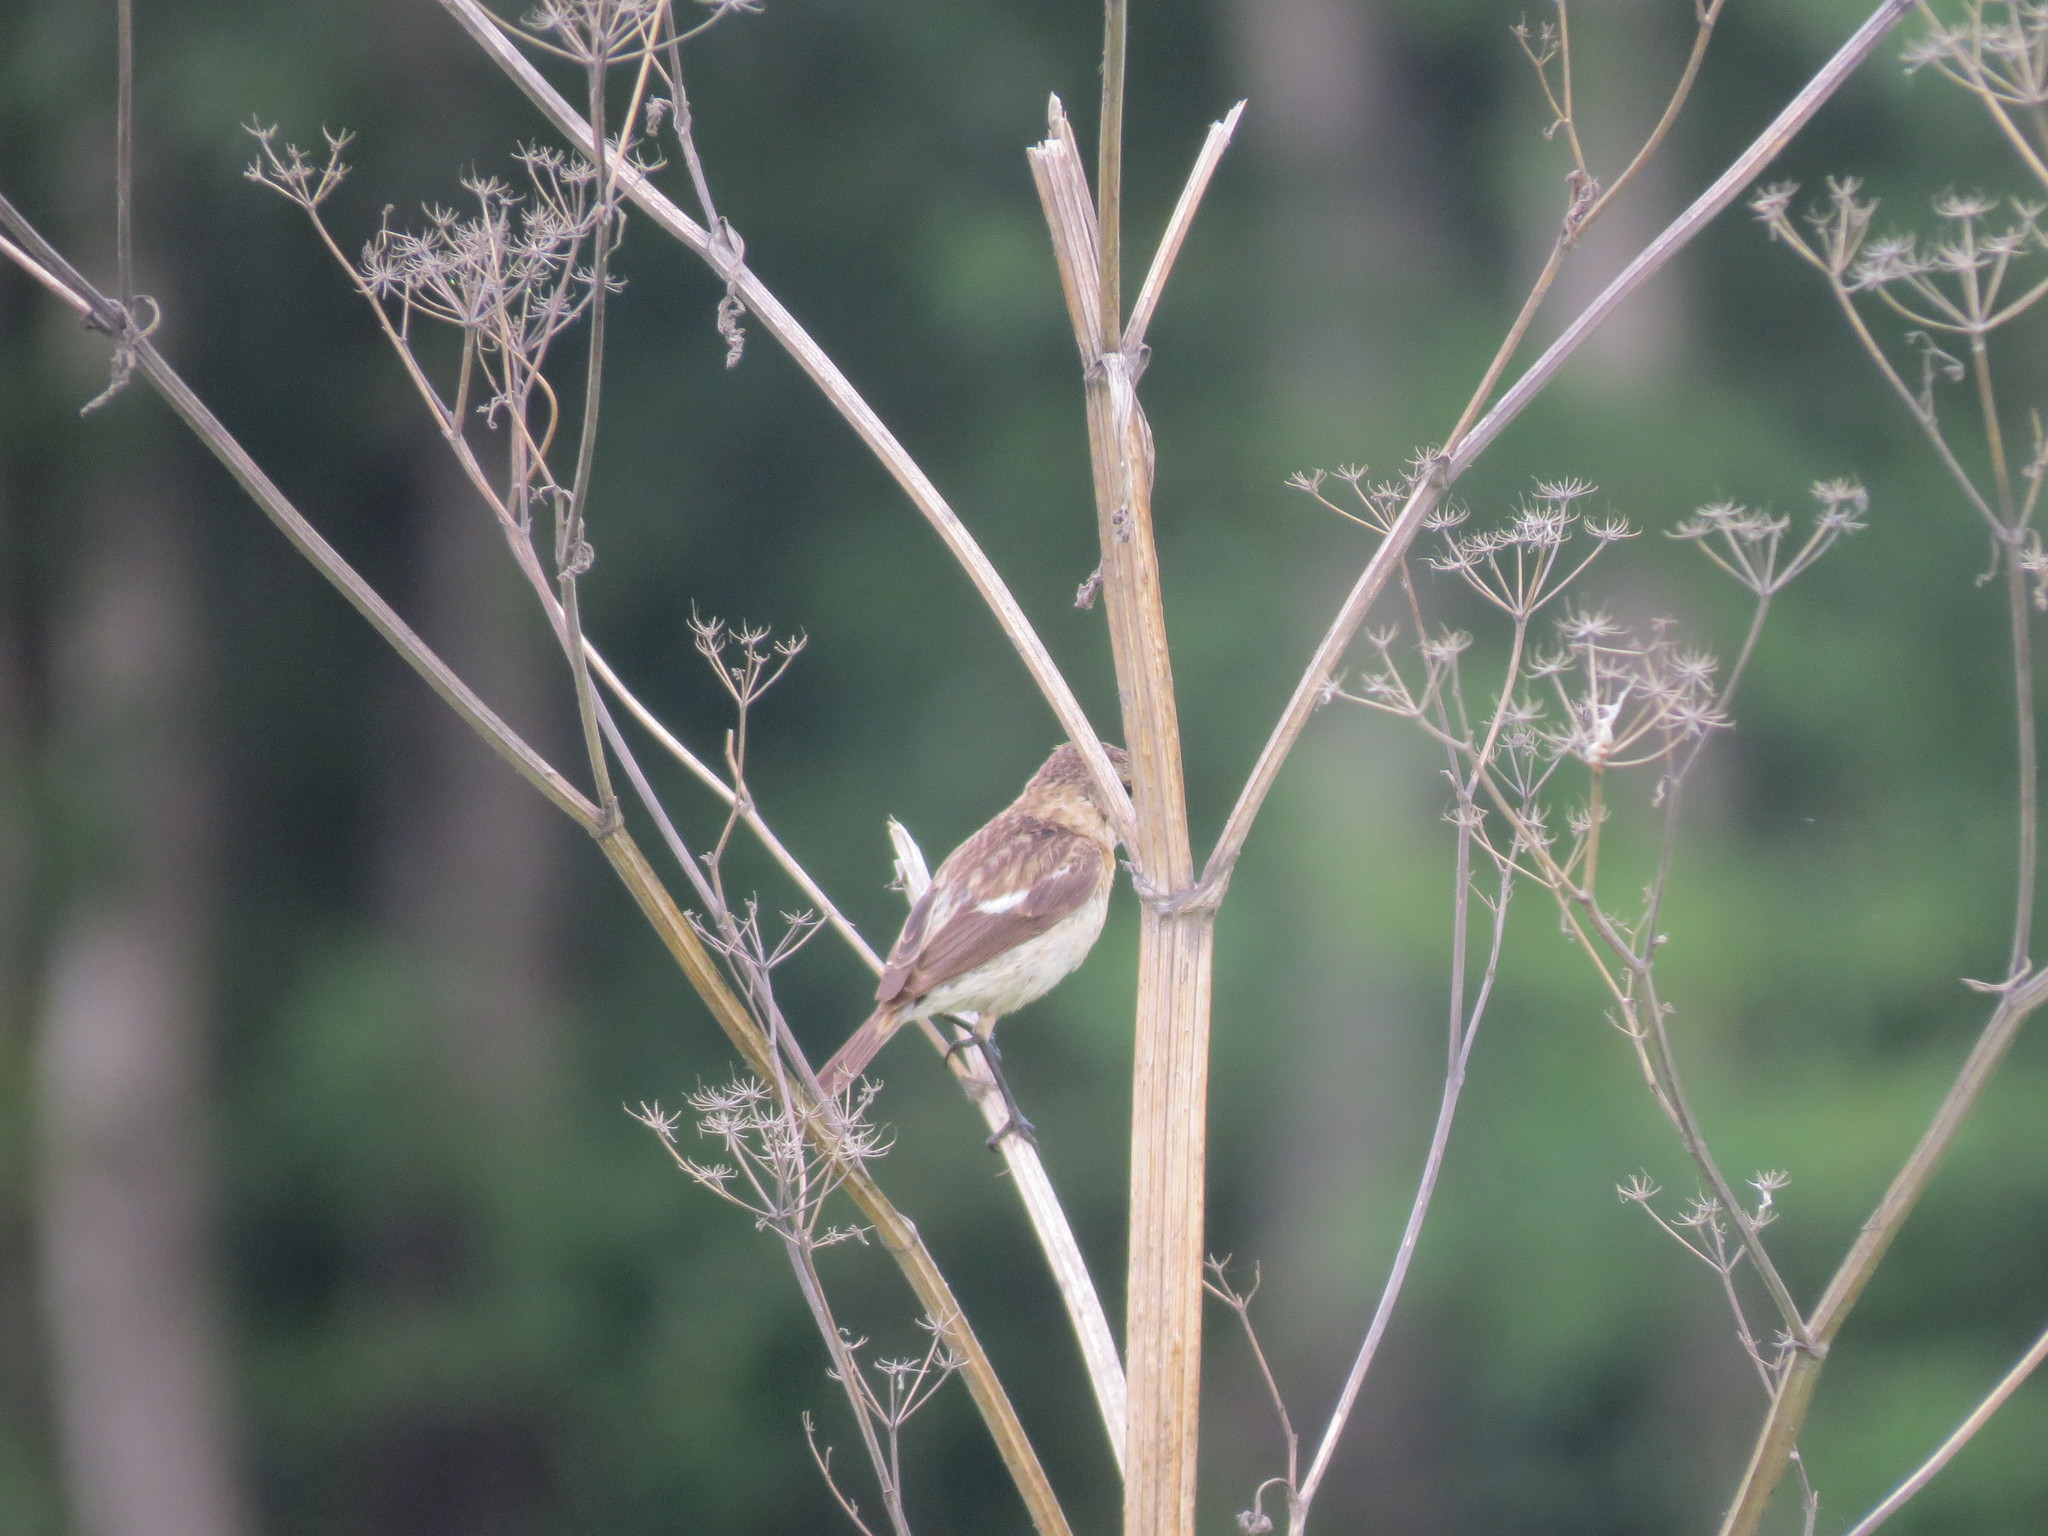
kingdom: Animalia
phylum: Chordata
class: Aves
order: Passeriformes
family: Muscicapidae
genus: Saxicola
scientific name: Saxicola maurus
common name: Siberian stonechat
